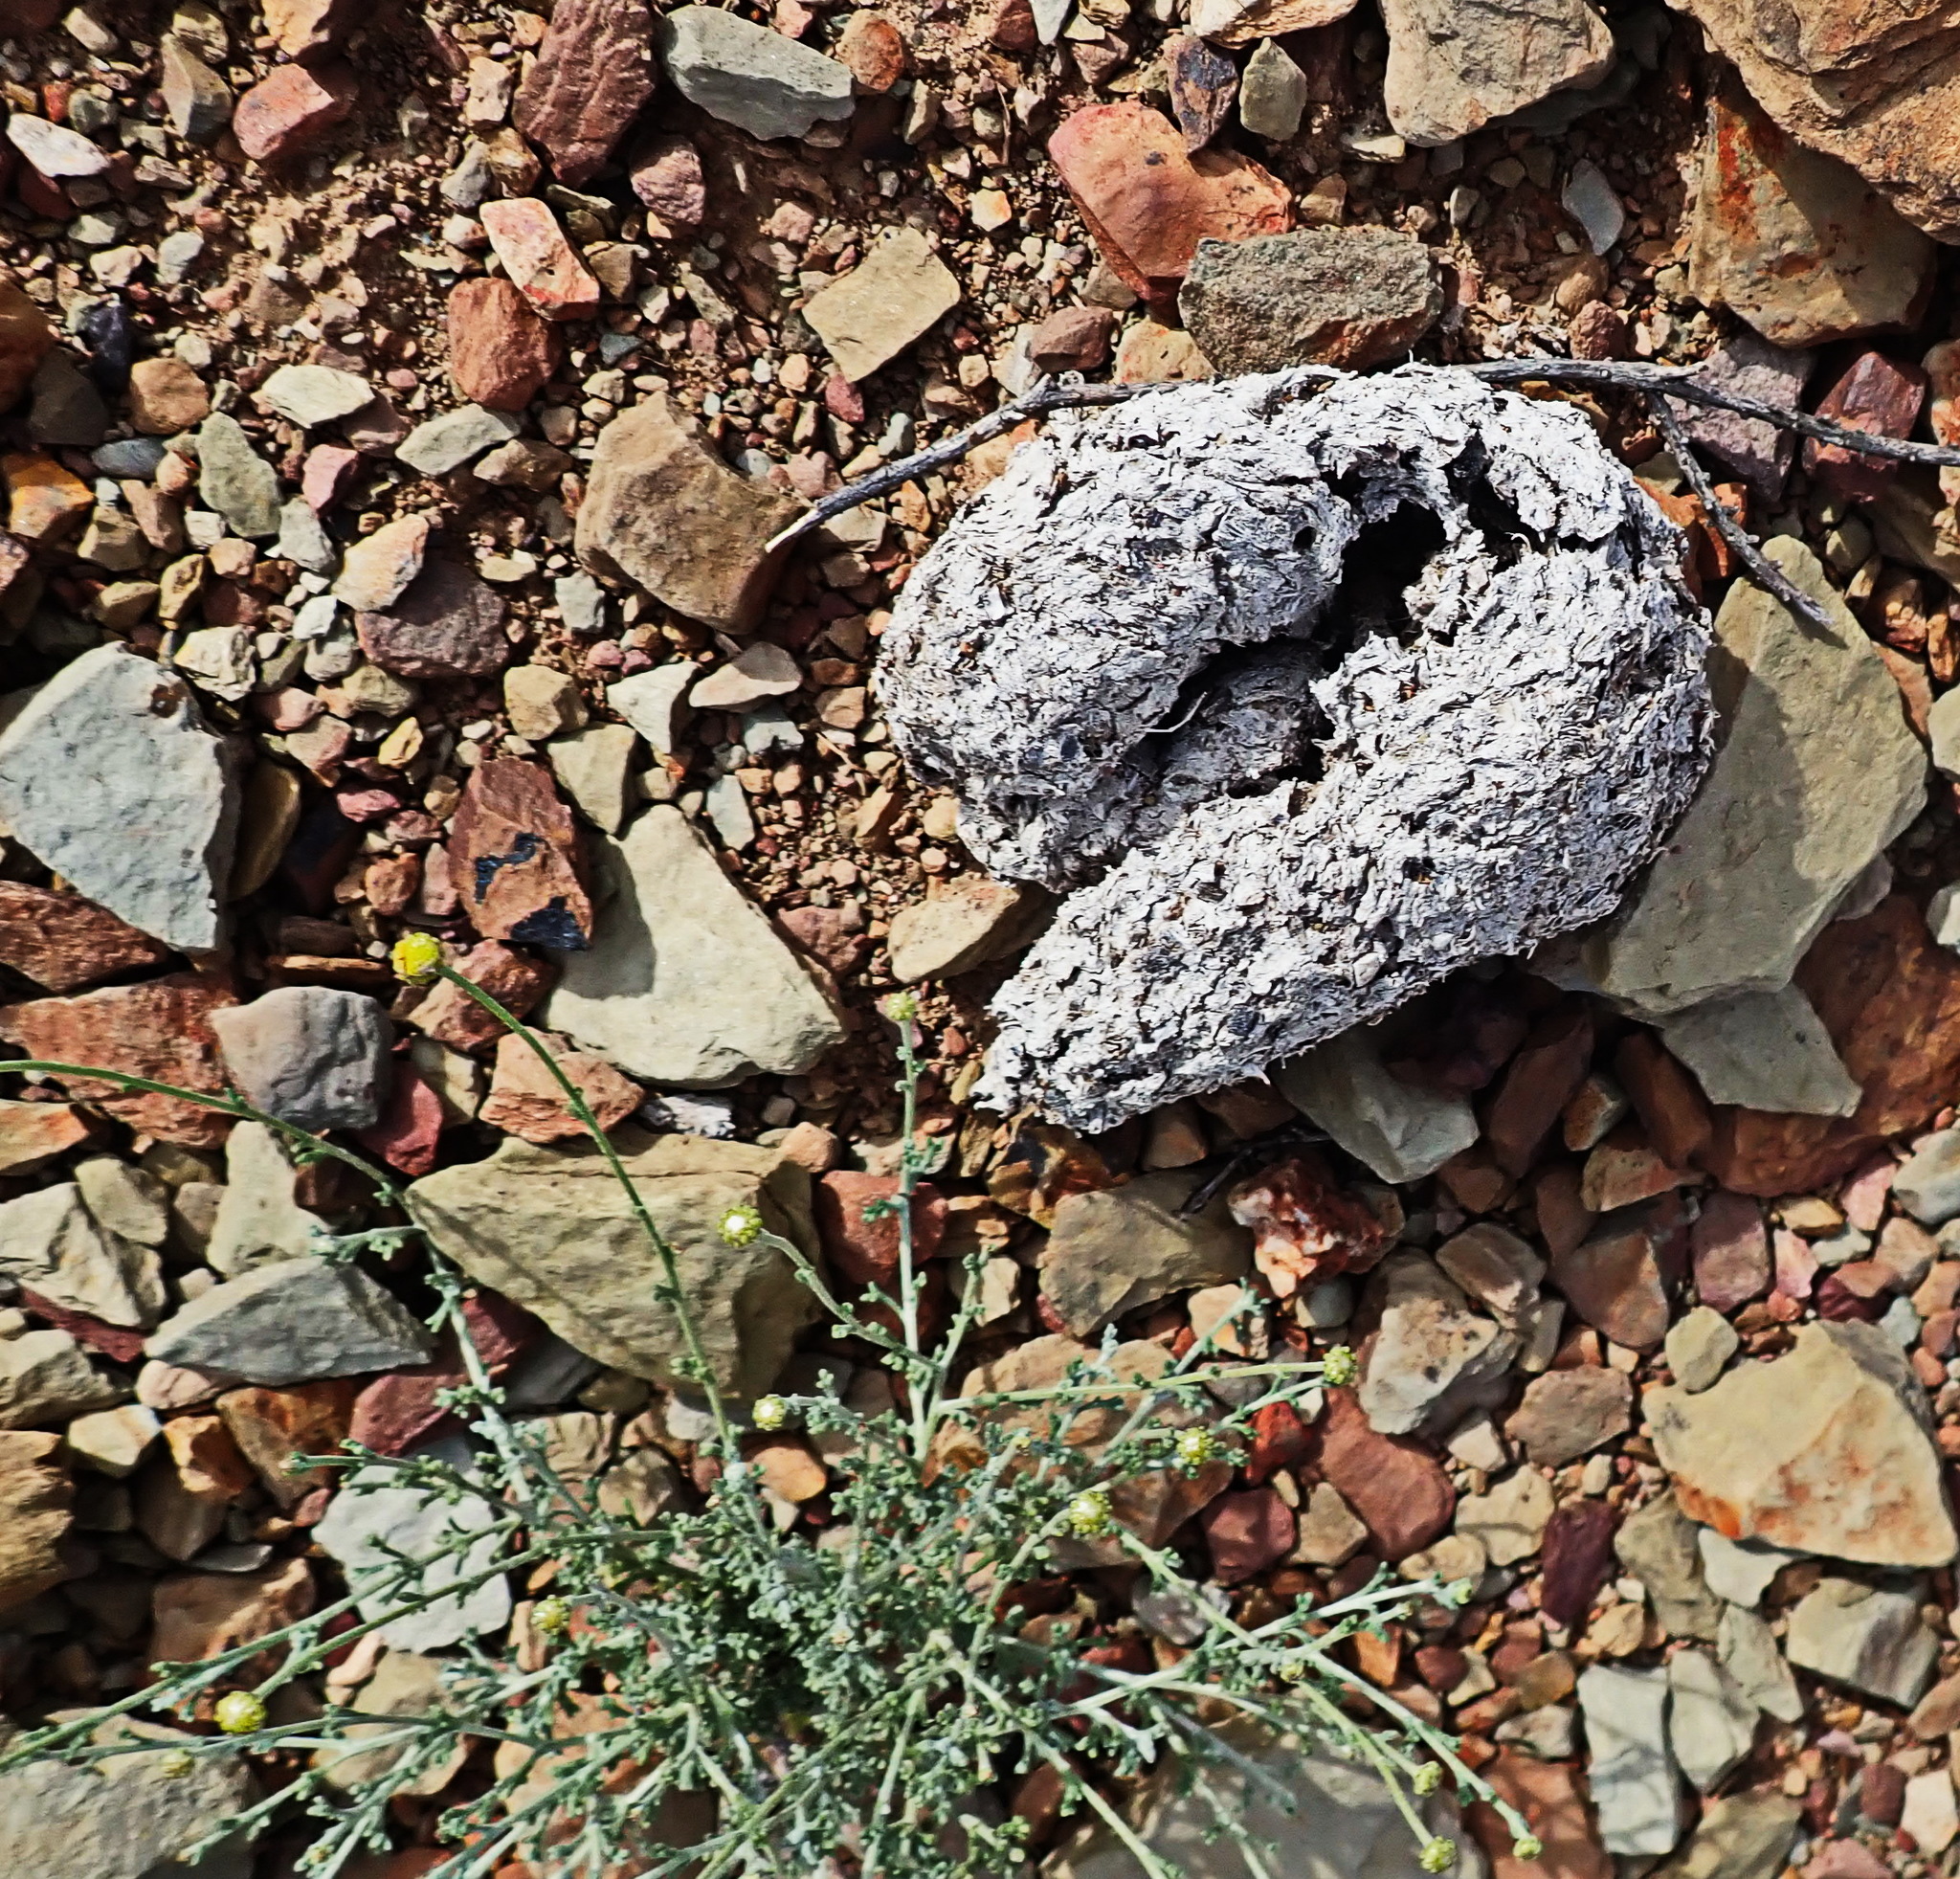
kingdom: Animalia
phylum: Chordata
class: Mammalia
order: Primates
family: Cercopithecidae
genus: Papio
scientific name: Papio ursinus
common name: Chacma baboon
